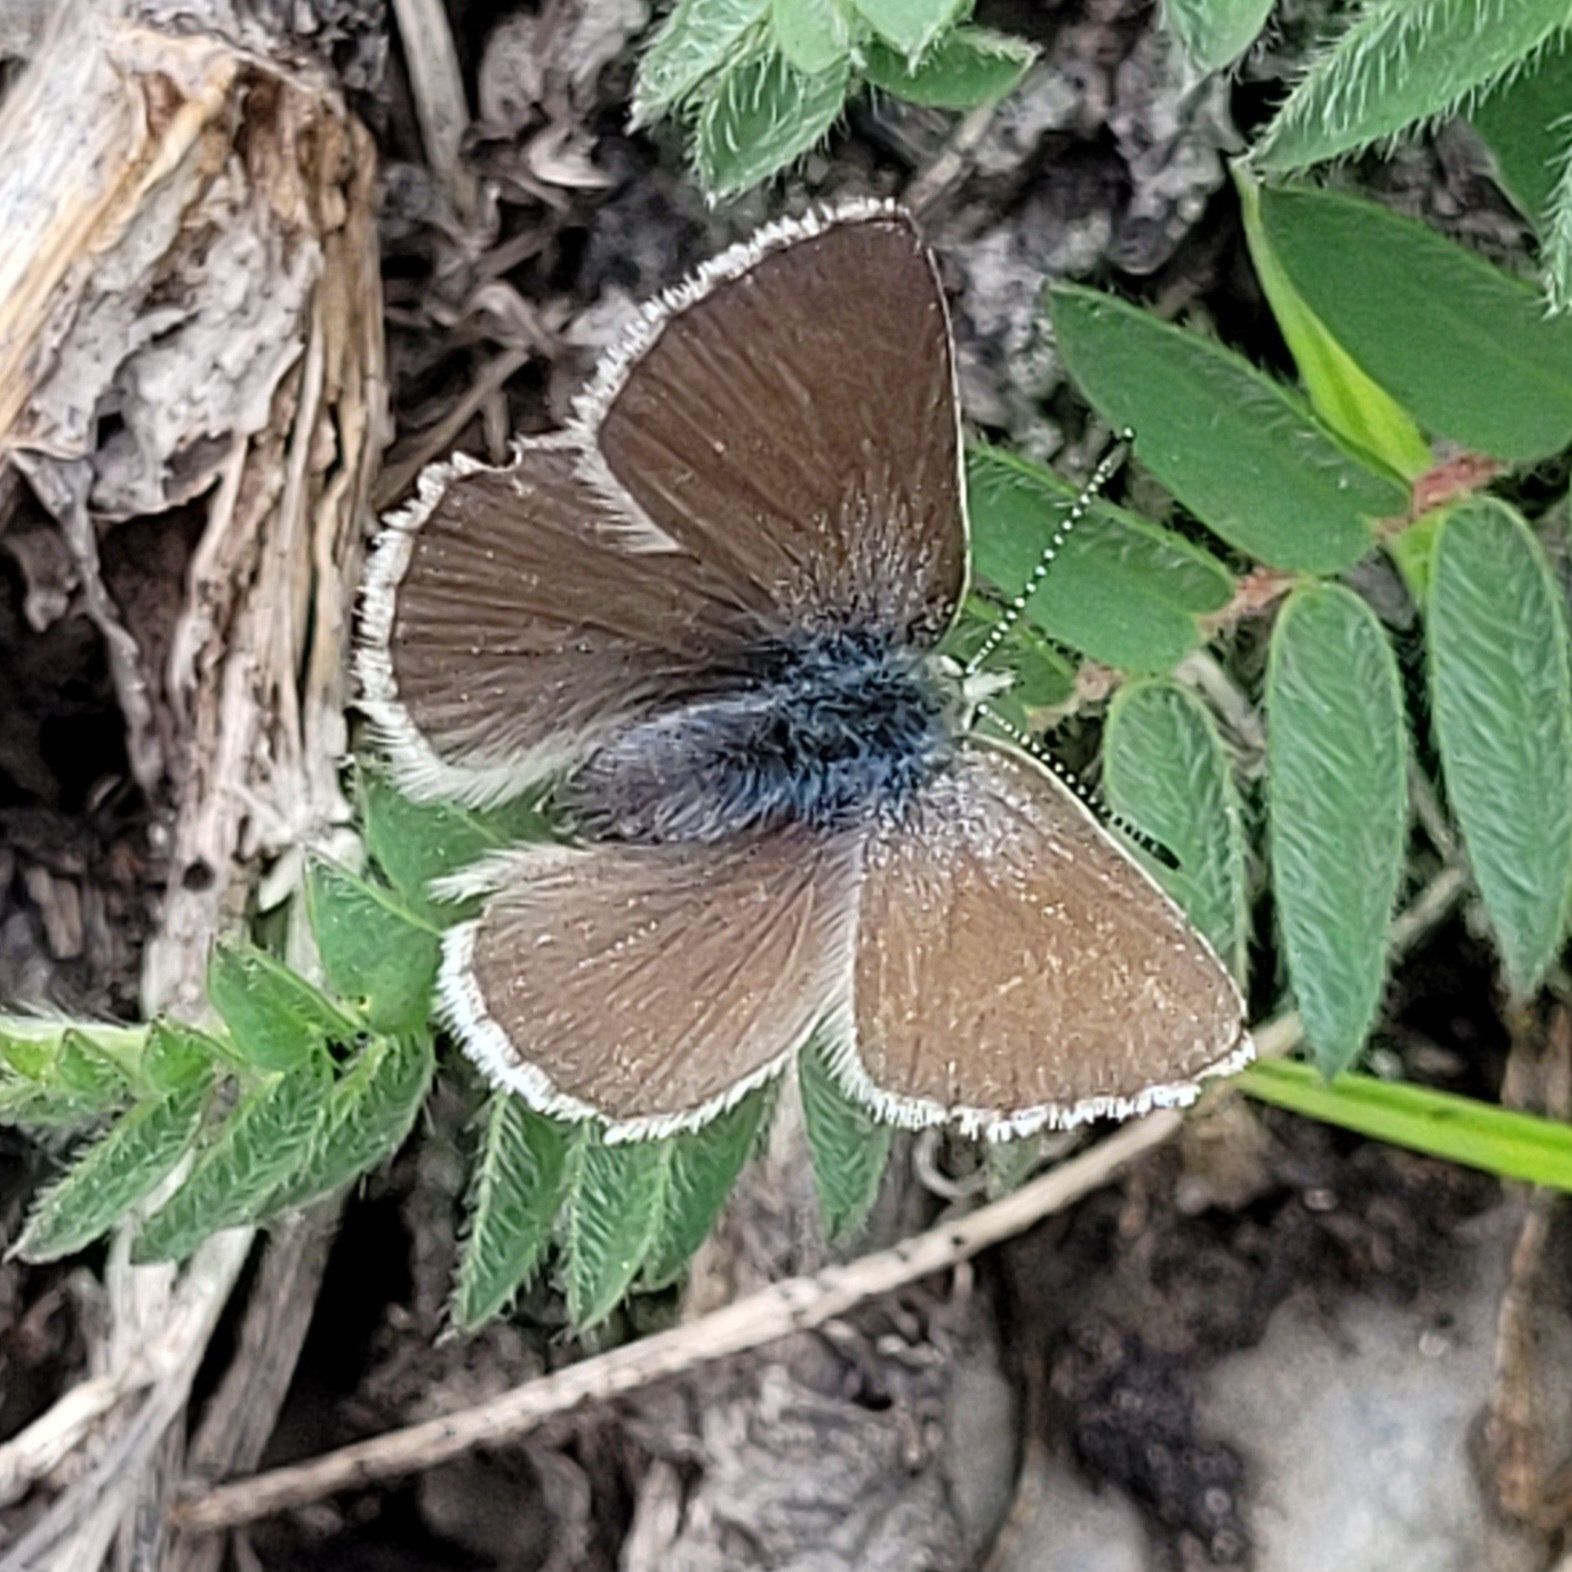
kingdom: Animalia
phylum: Arthropoda
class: Insecta
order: Lepidoptera
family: Lycaenidae
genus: Albulina
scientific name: Albulina orbitulus
